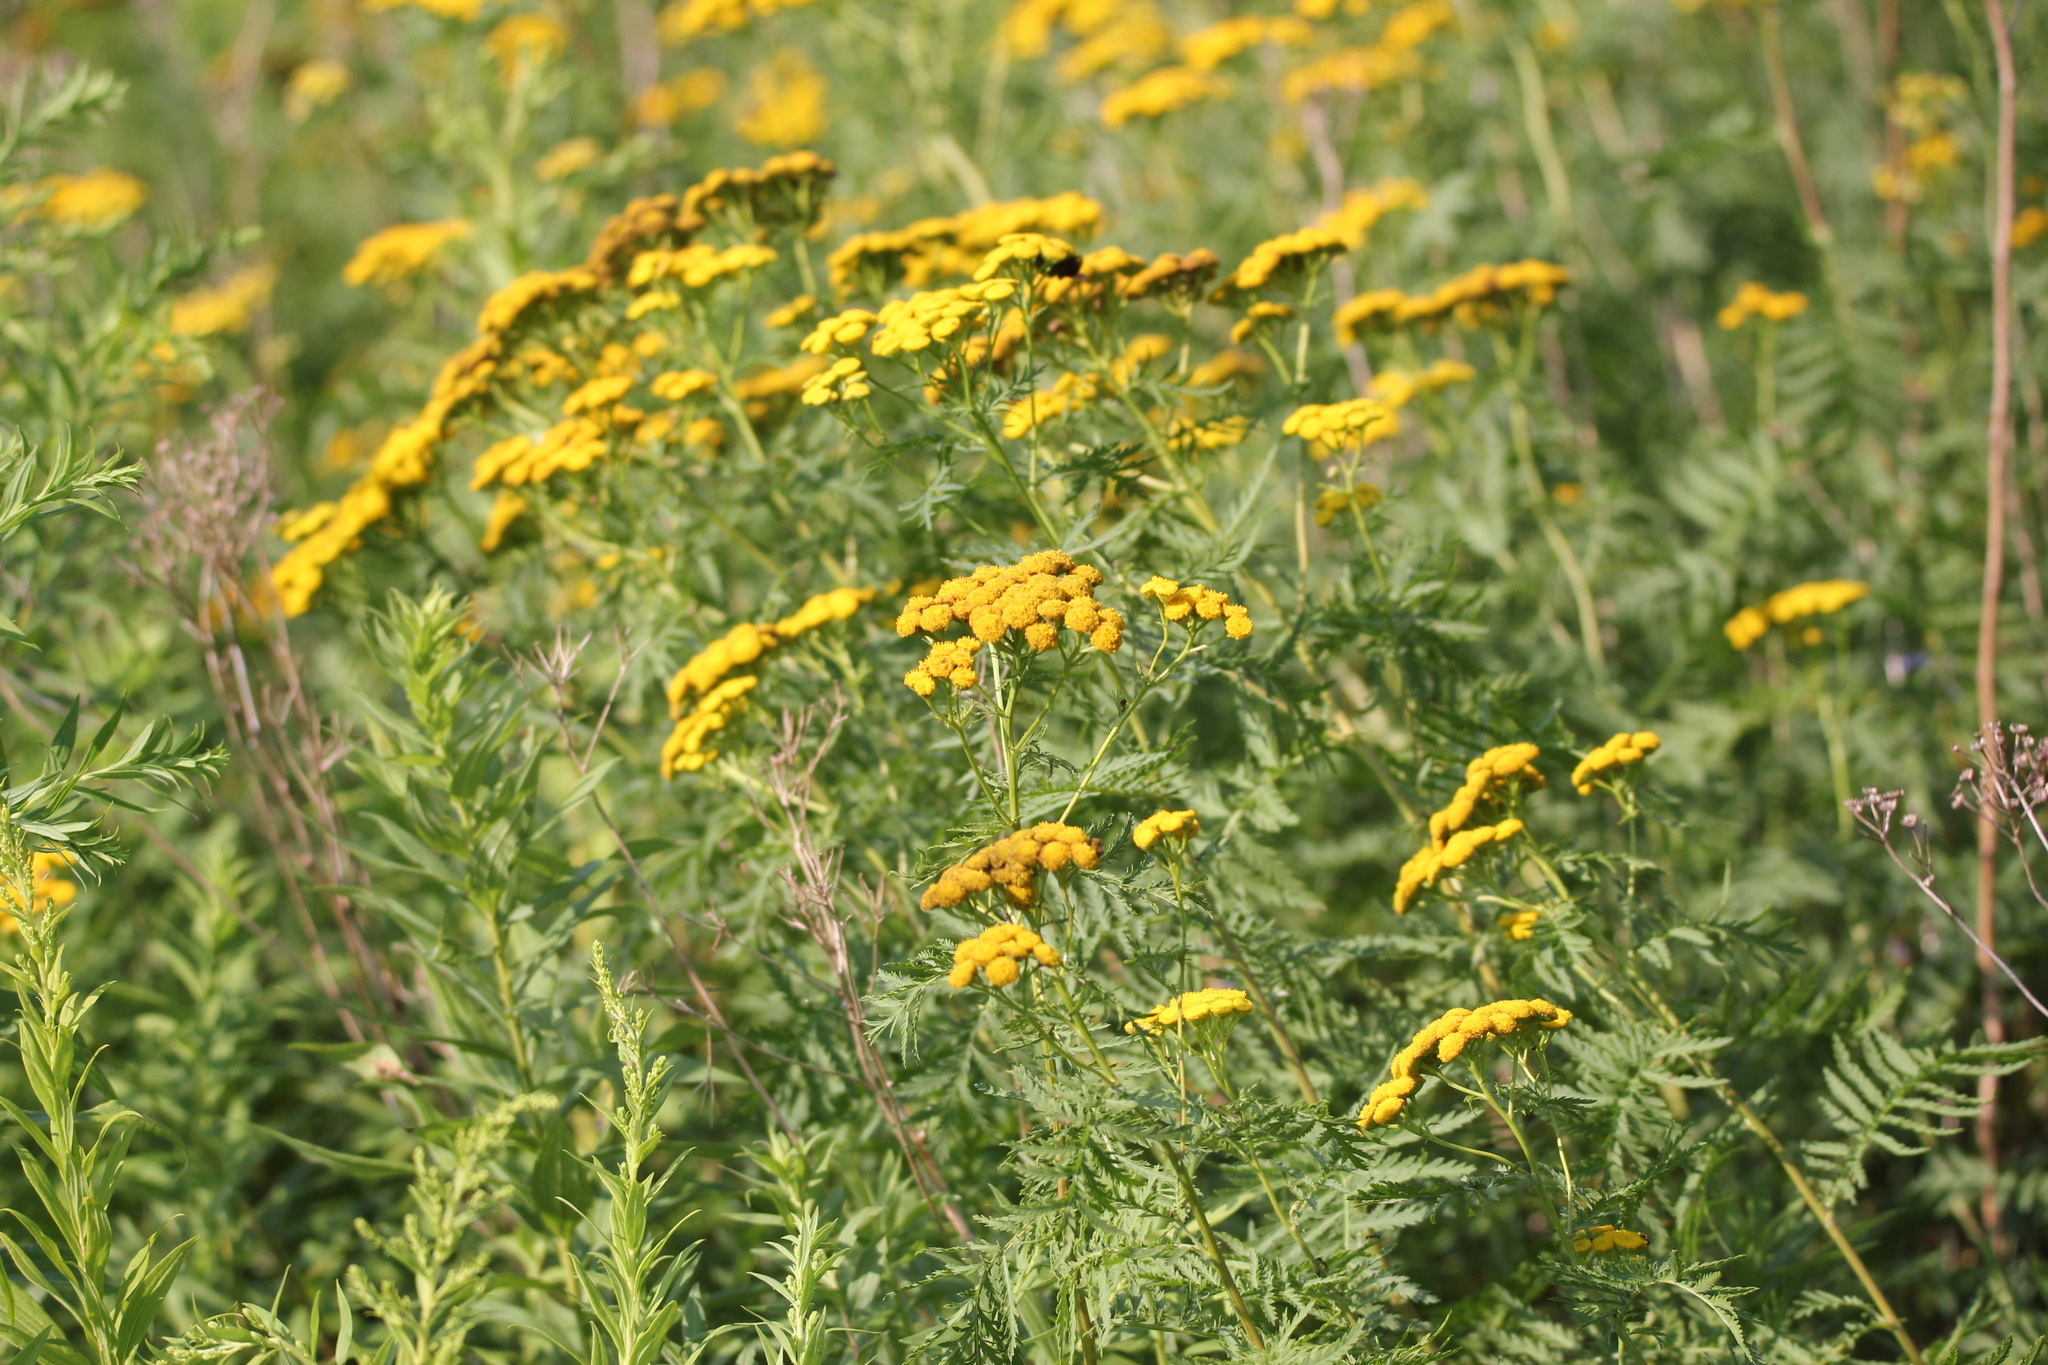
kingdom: Plantae
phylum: Tracheophyta
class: Magnoliopsida
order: Asterales
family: Asteraceae
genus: Tanacetum
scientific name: Tanacetum vulgare
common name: Common tansy
